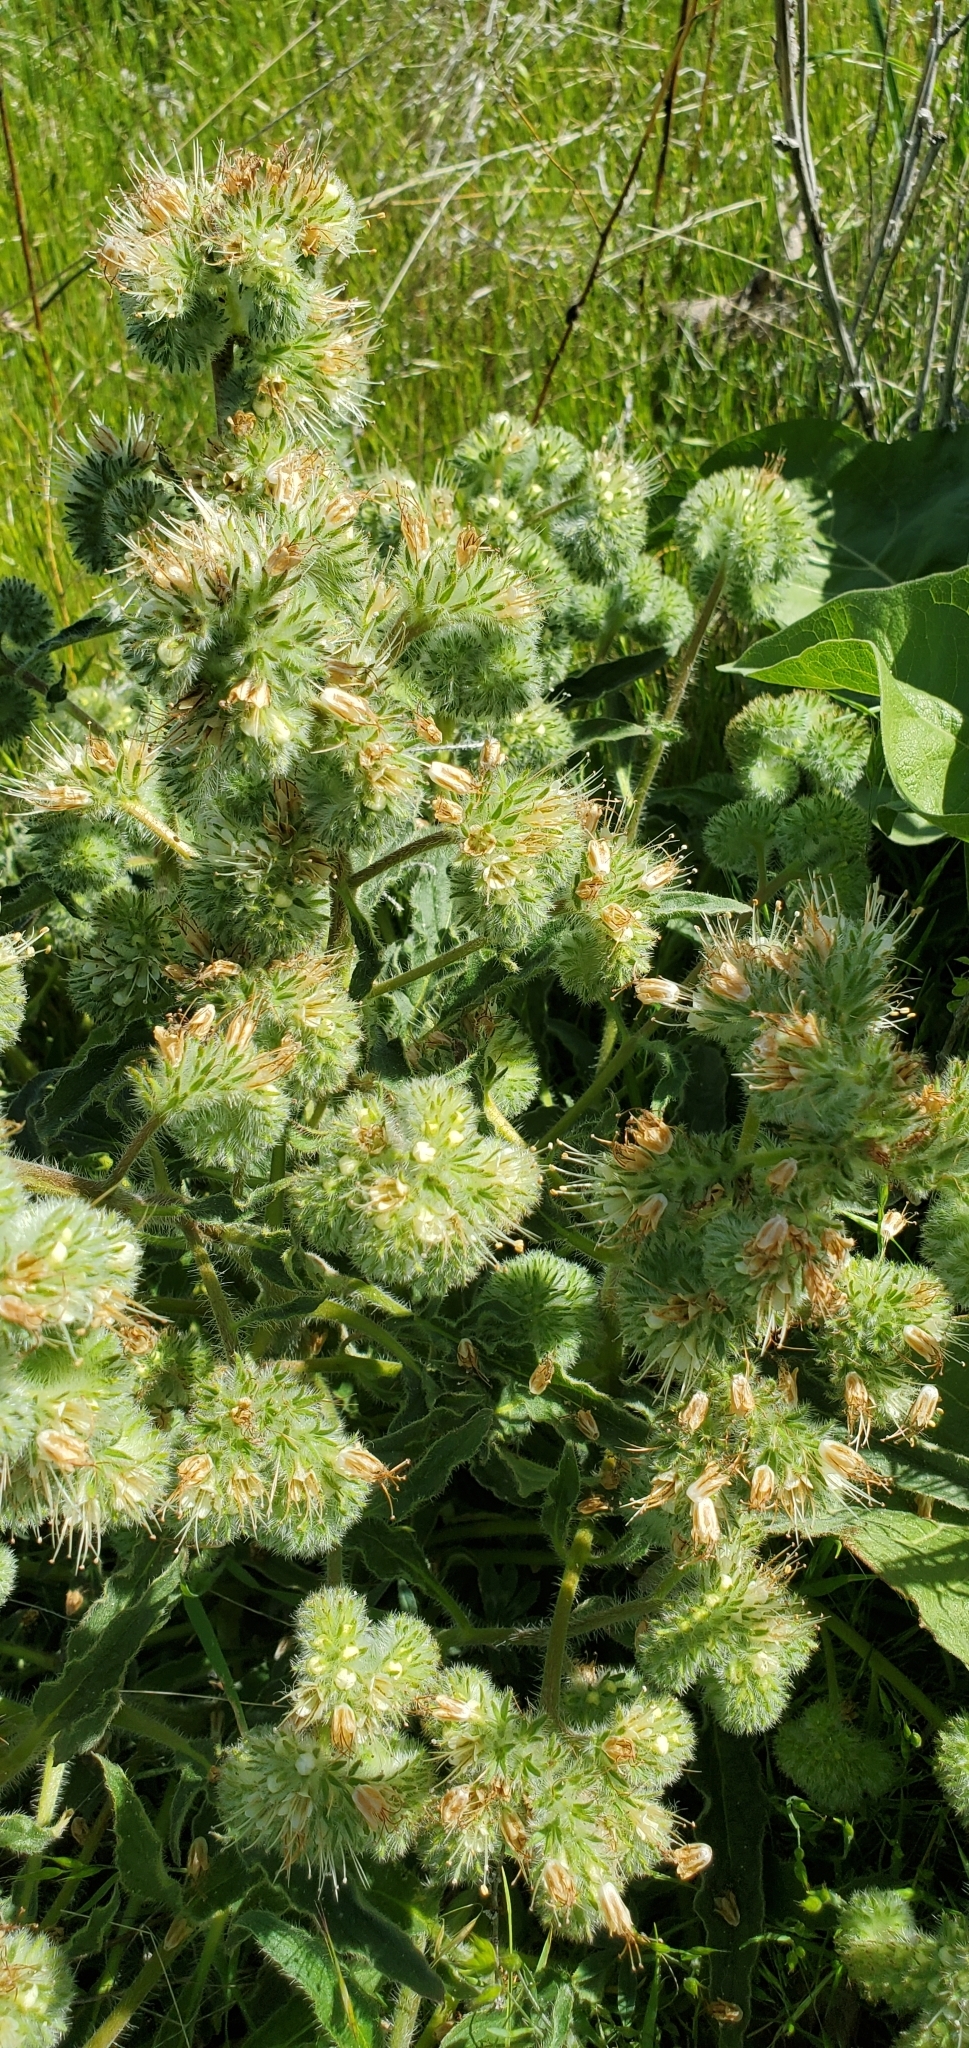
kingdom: Plantae
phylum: Tracheophyta
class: Magnoliopsida
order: Boraginales
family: Hydrophyllaceae
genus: Phacelia
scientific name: Phacelia hastata
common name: Silver-leaved phacelia
